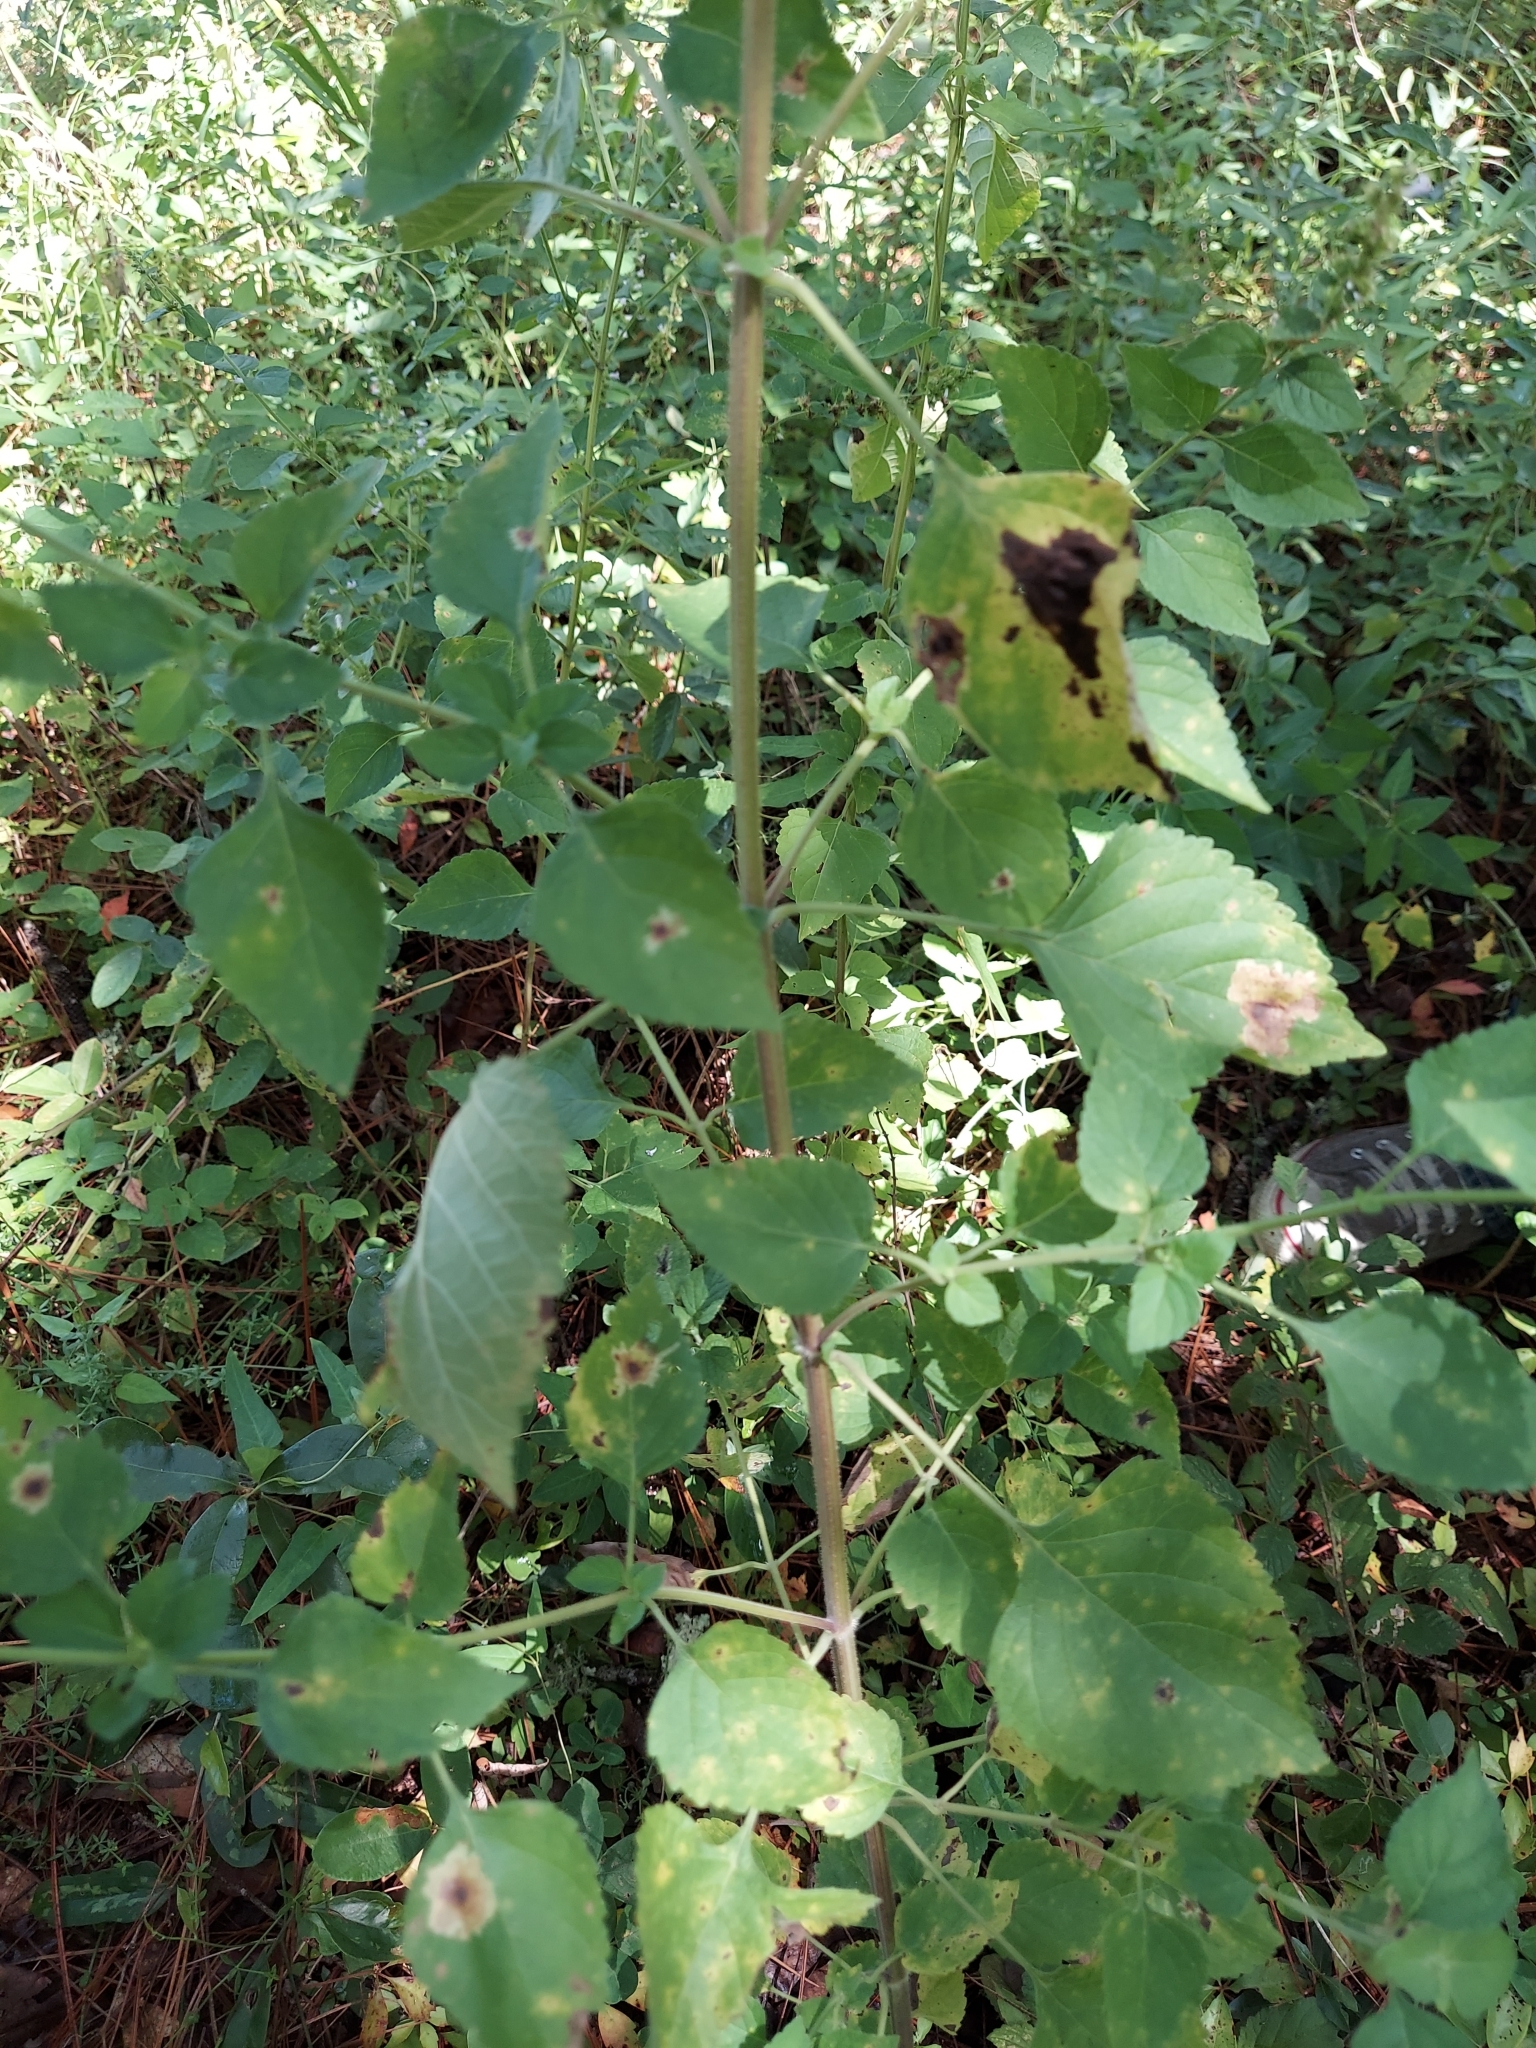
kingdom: Plantae
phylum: Tracheophyta
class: Magnoliopsida
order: Lamiales
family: Lamiaceae
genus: Cantinoa
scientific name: Cantinoa mutabilis
